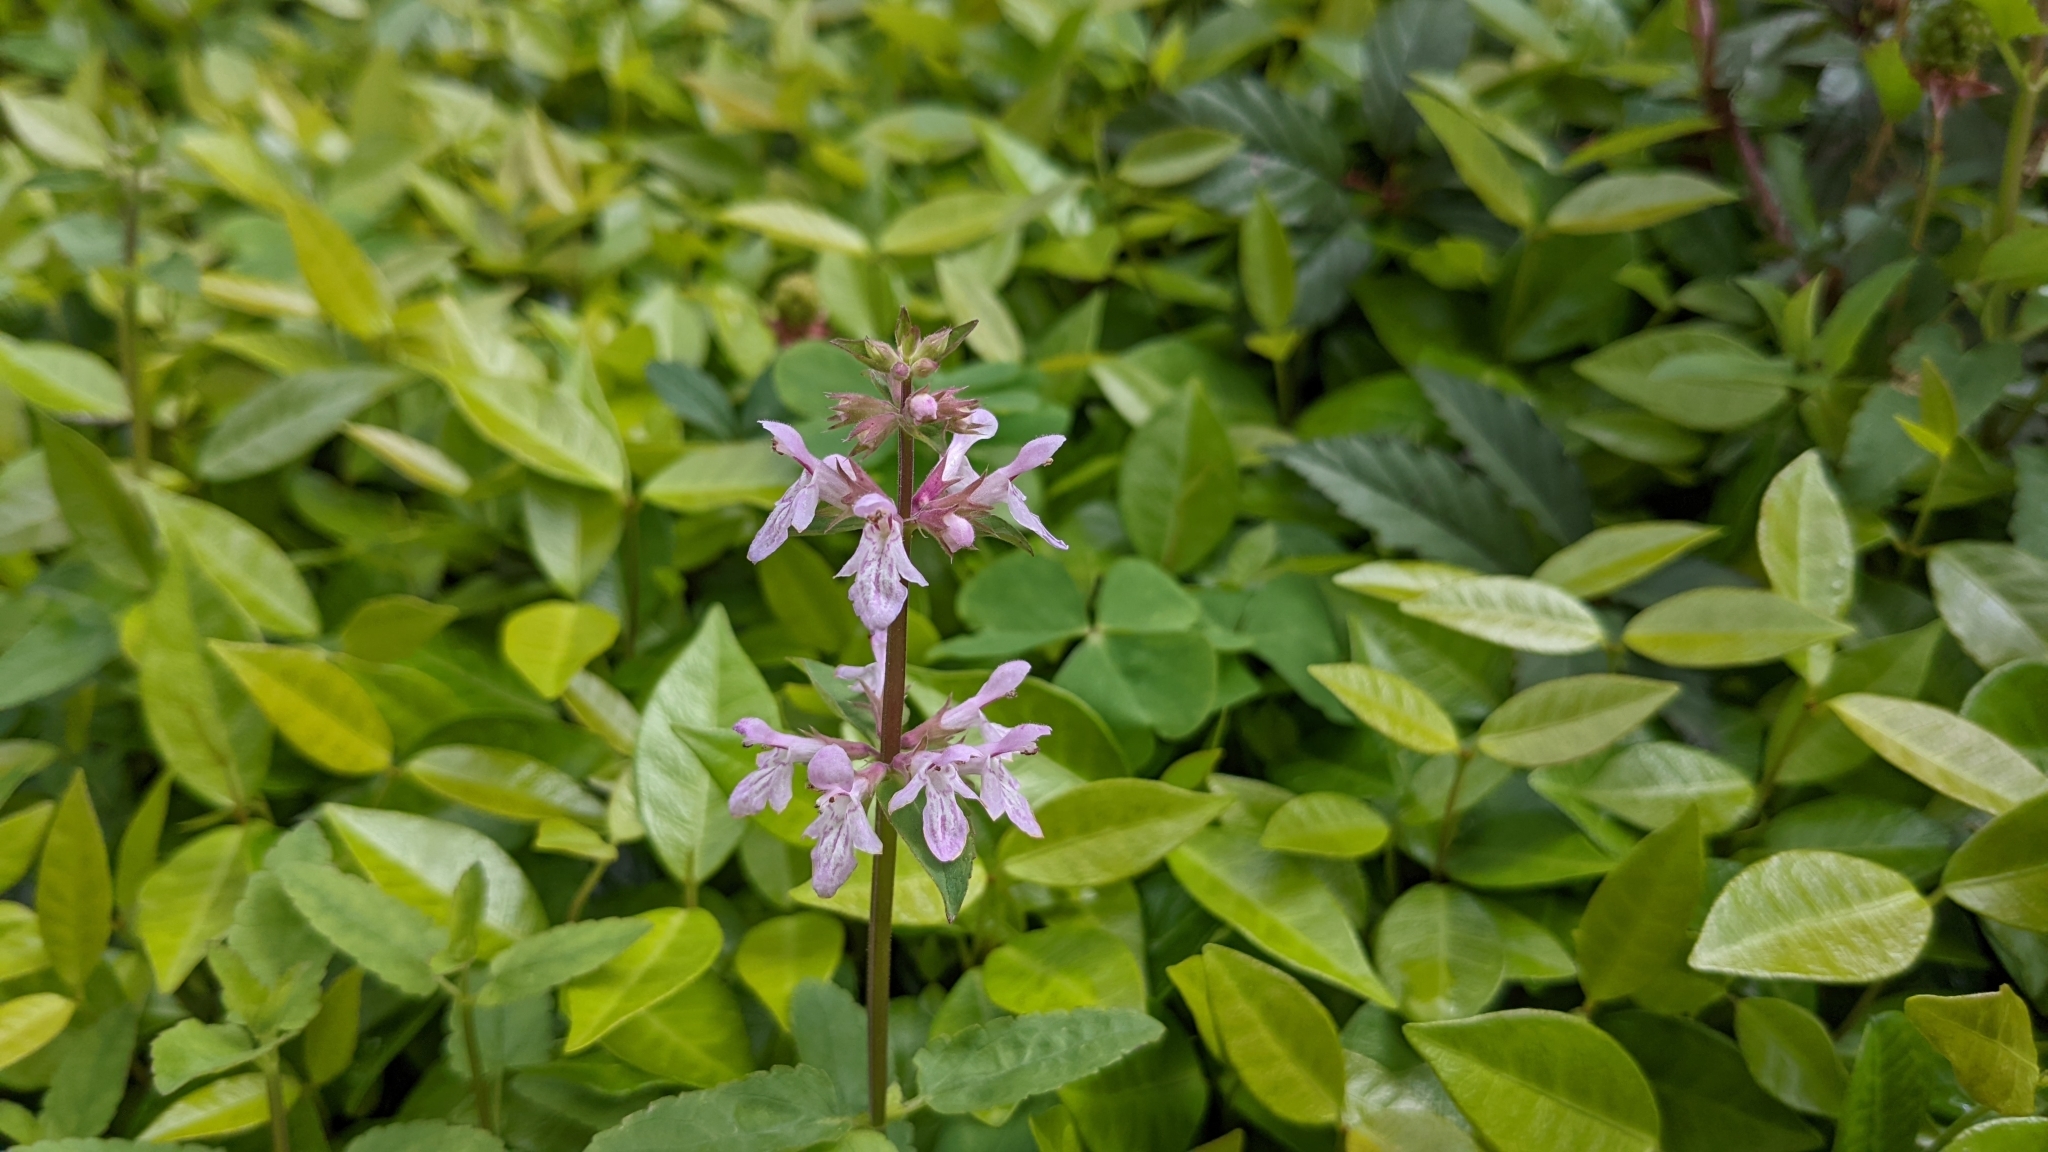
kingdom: Plantae
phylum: Tracheophyta
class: Magnoliopsida
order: Lamiales
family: Lamiaceae
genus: Stachys
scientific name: Stachys floridana
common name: Florida betony
